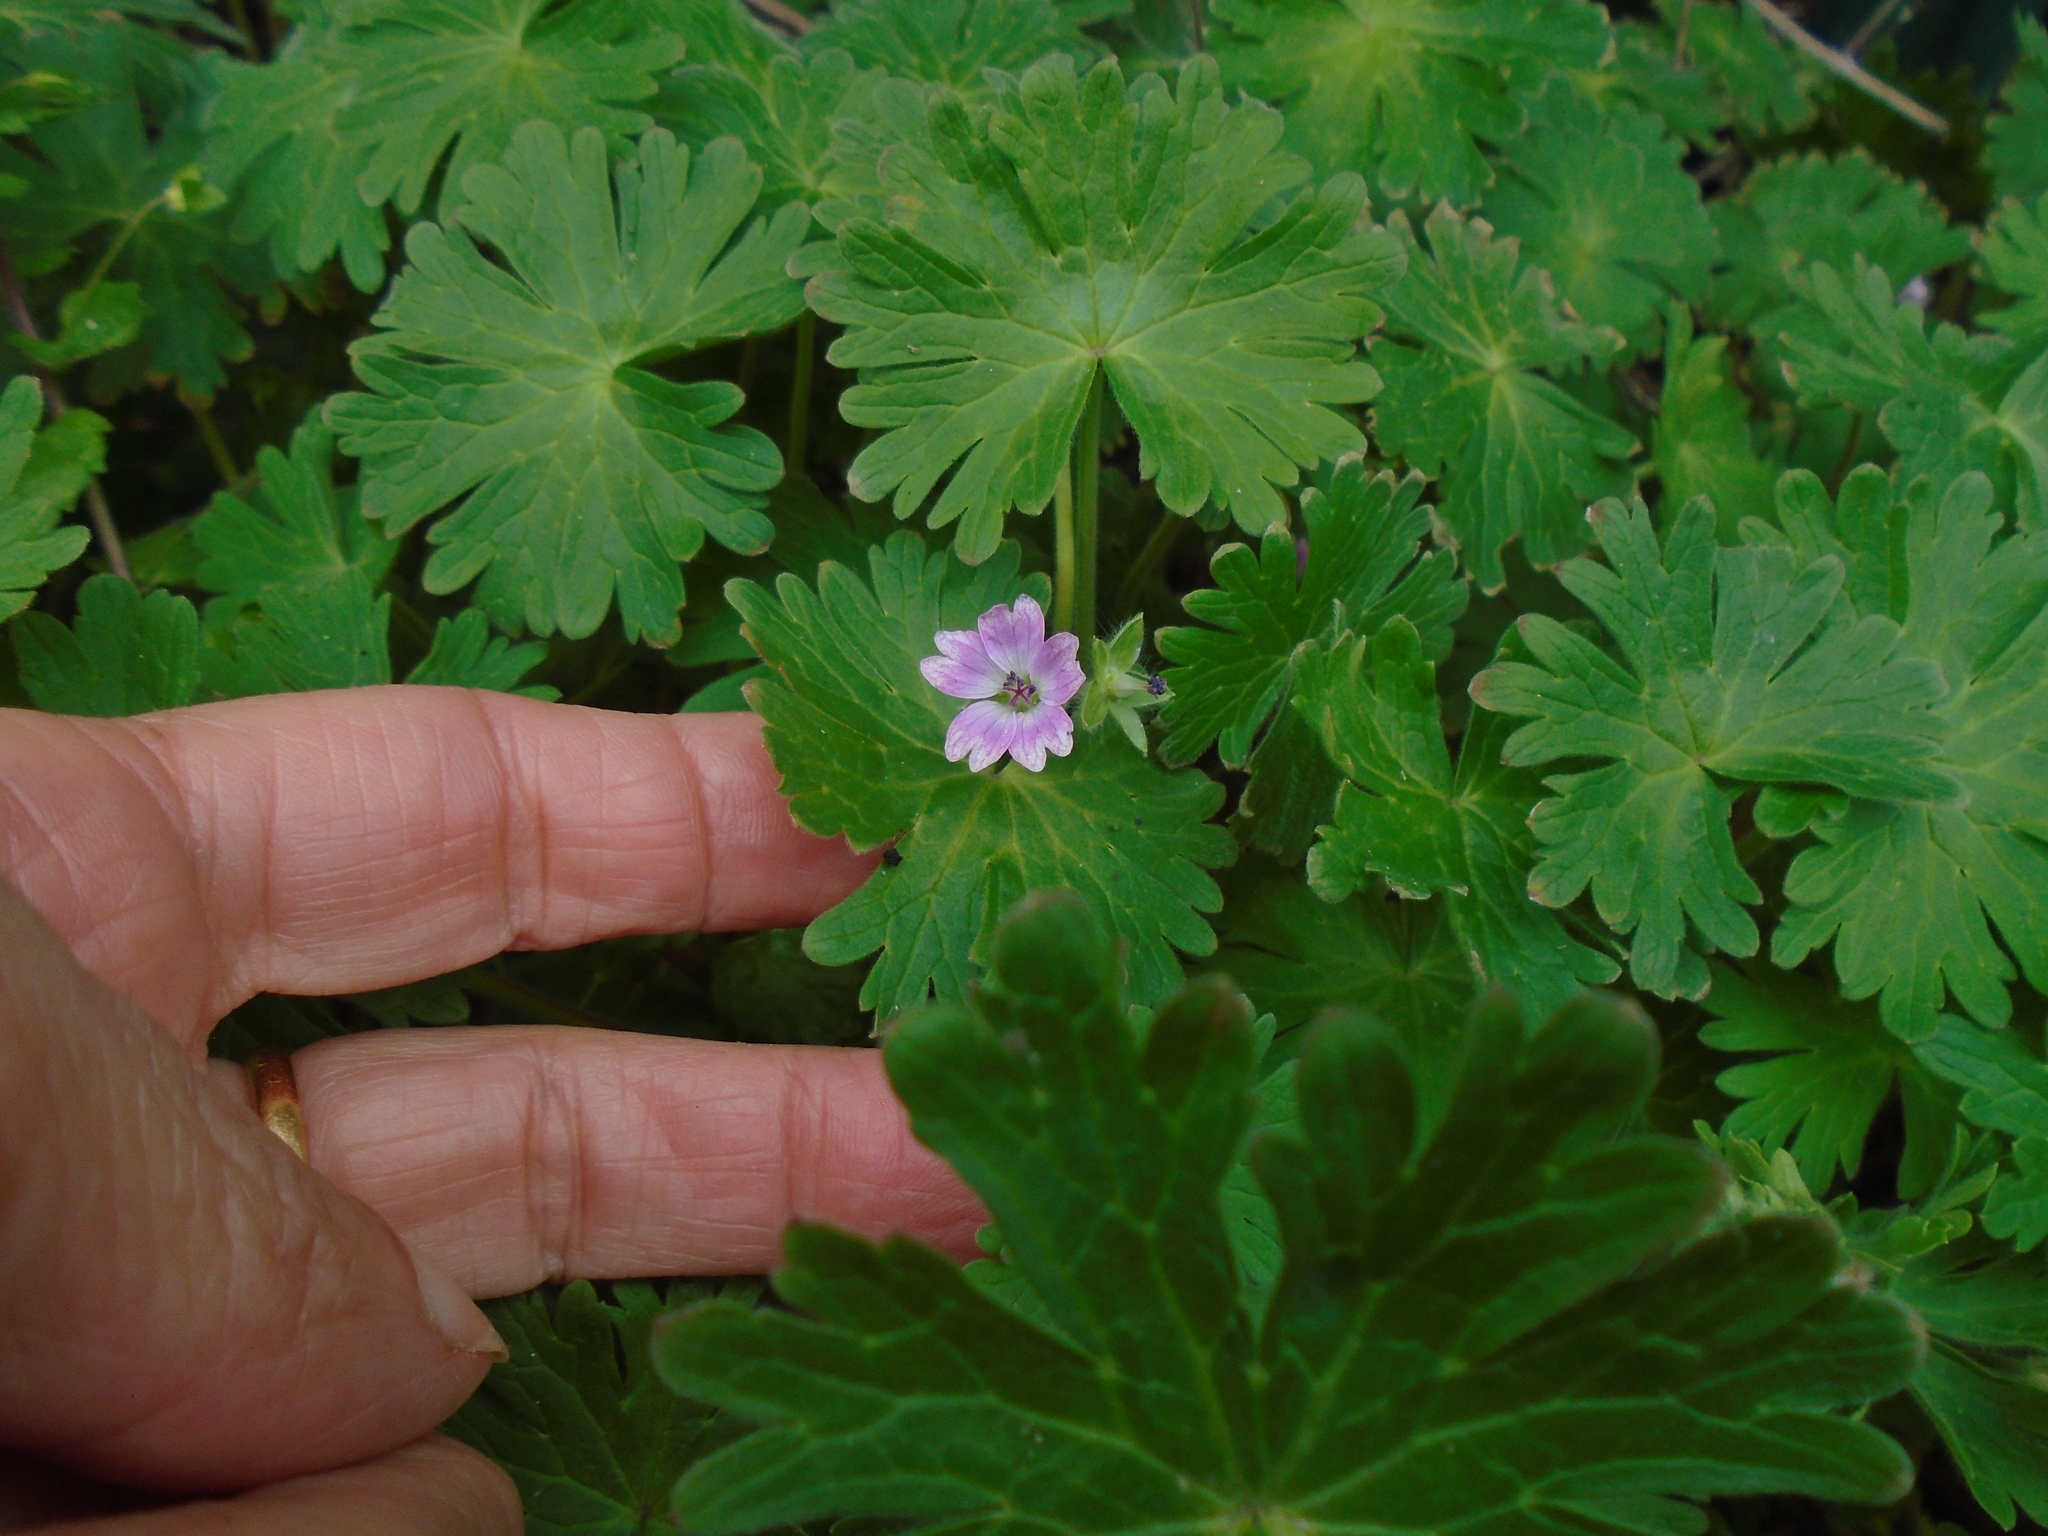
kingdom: Plantae
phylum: Tracheophyta
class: Magnoliopsida
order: Geraniales
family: Geraniaceae
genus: Geranium
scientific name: Geranium molle
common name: Dove's-foot crane's-bill
